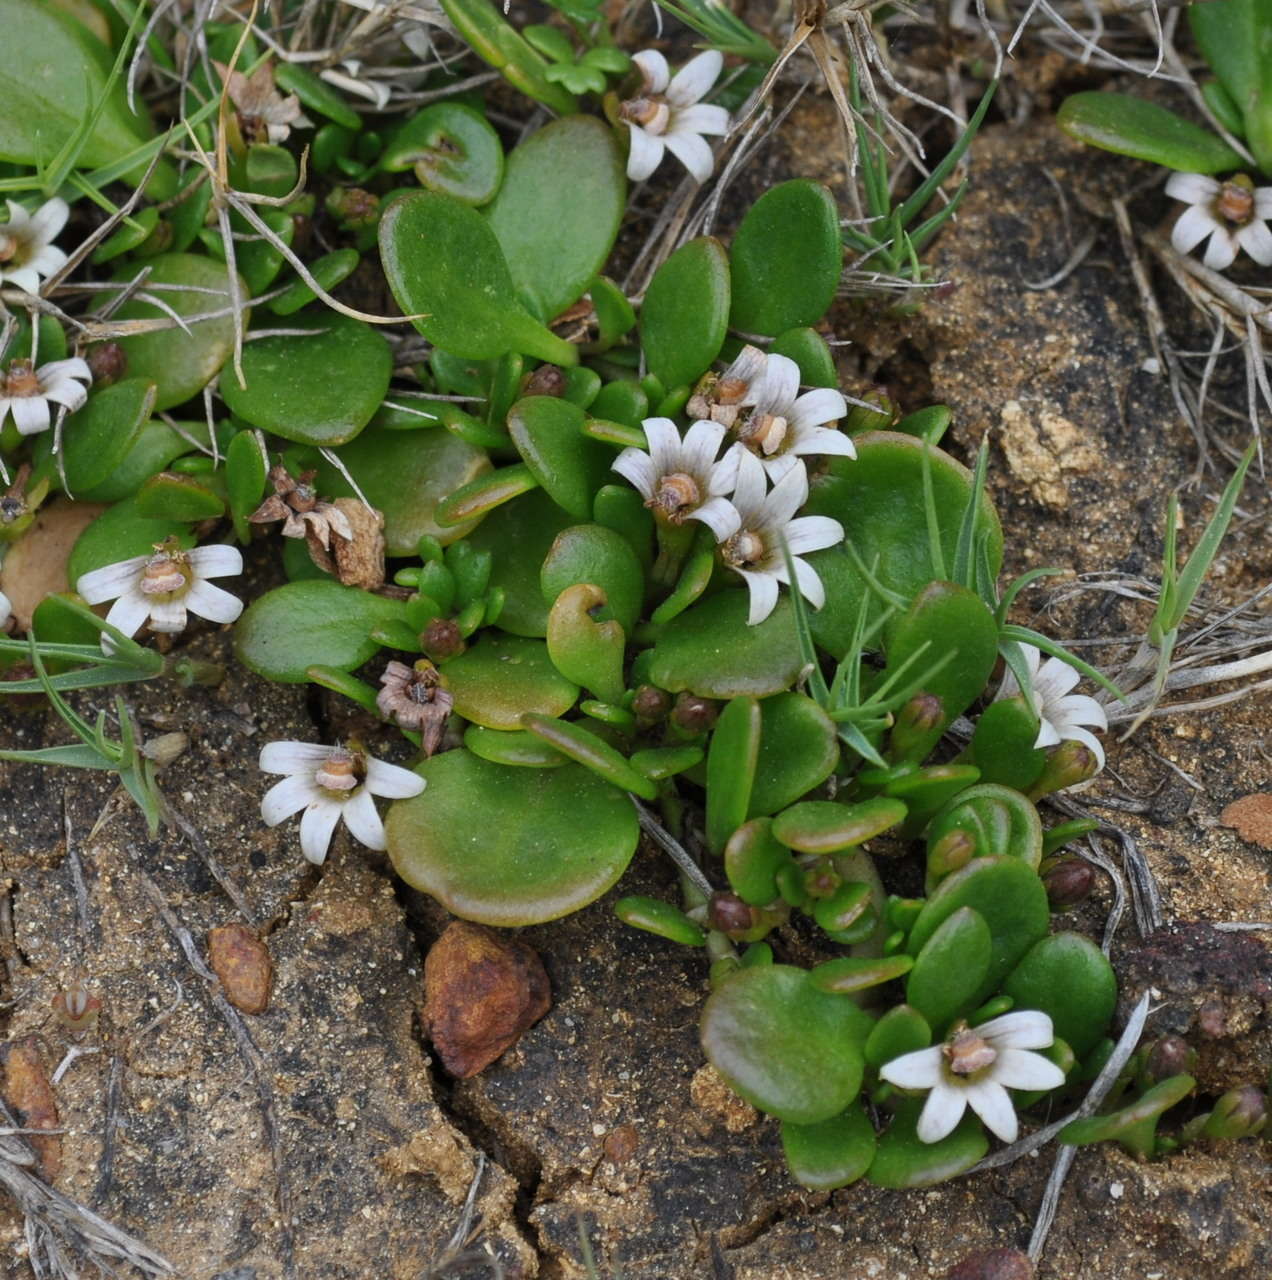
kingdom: Plantae
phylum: Tracheophyta
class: Magnoliopsida
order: Asterales
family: Goodeniaceae
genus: Goodenia
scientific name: Goodenia radicans
